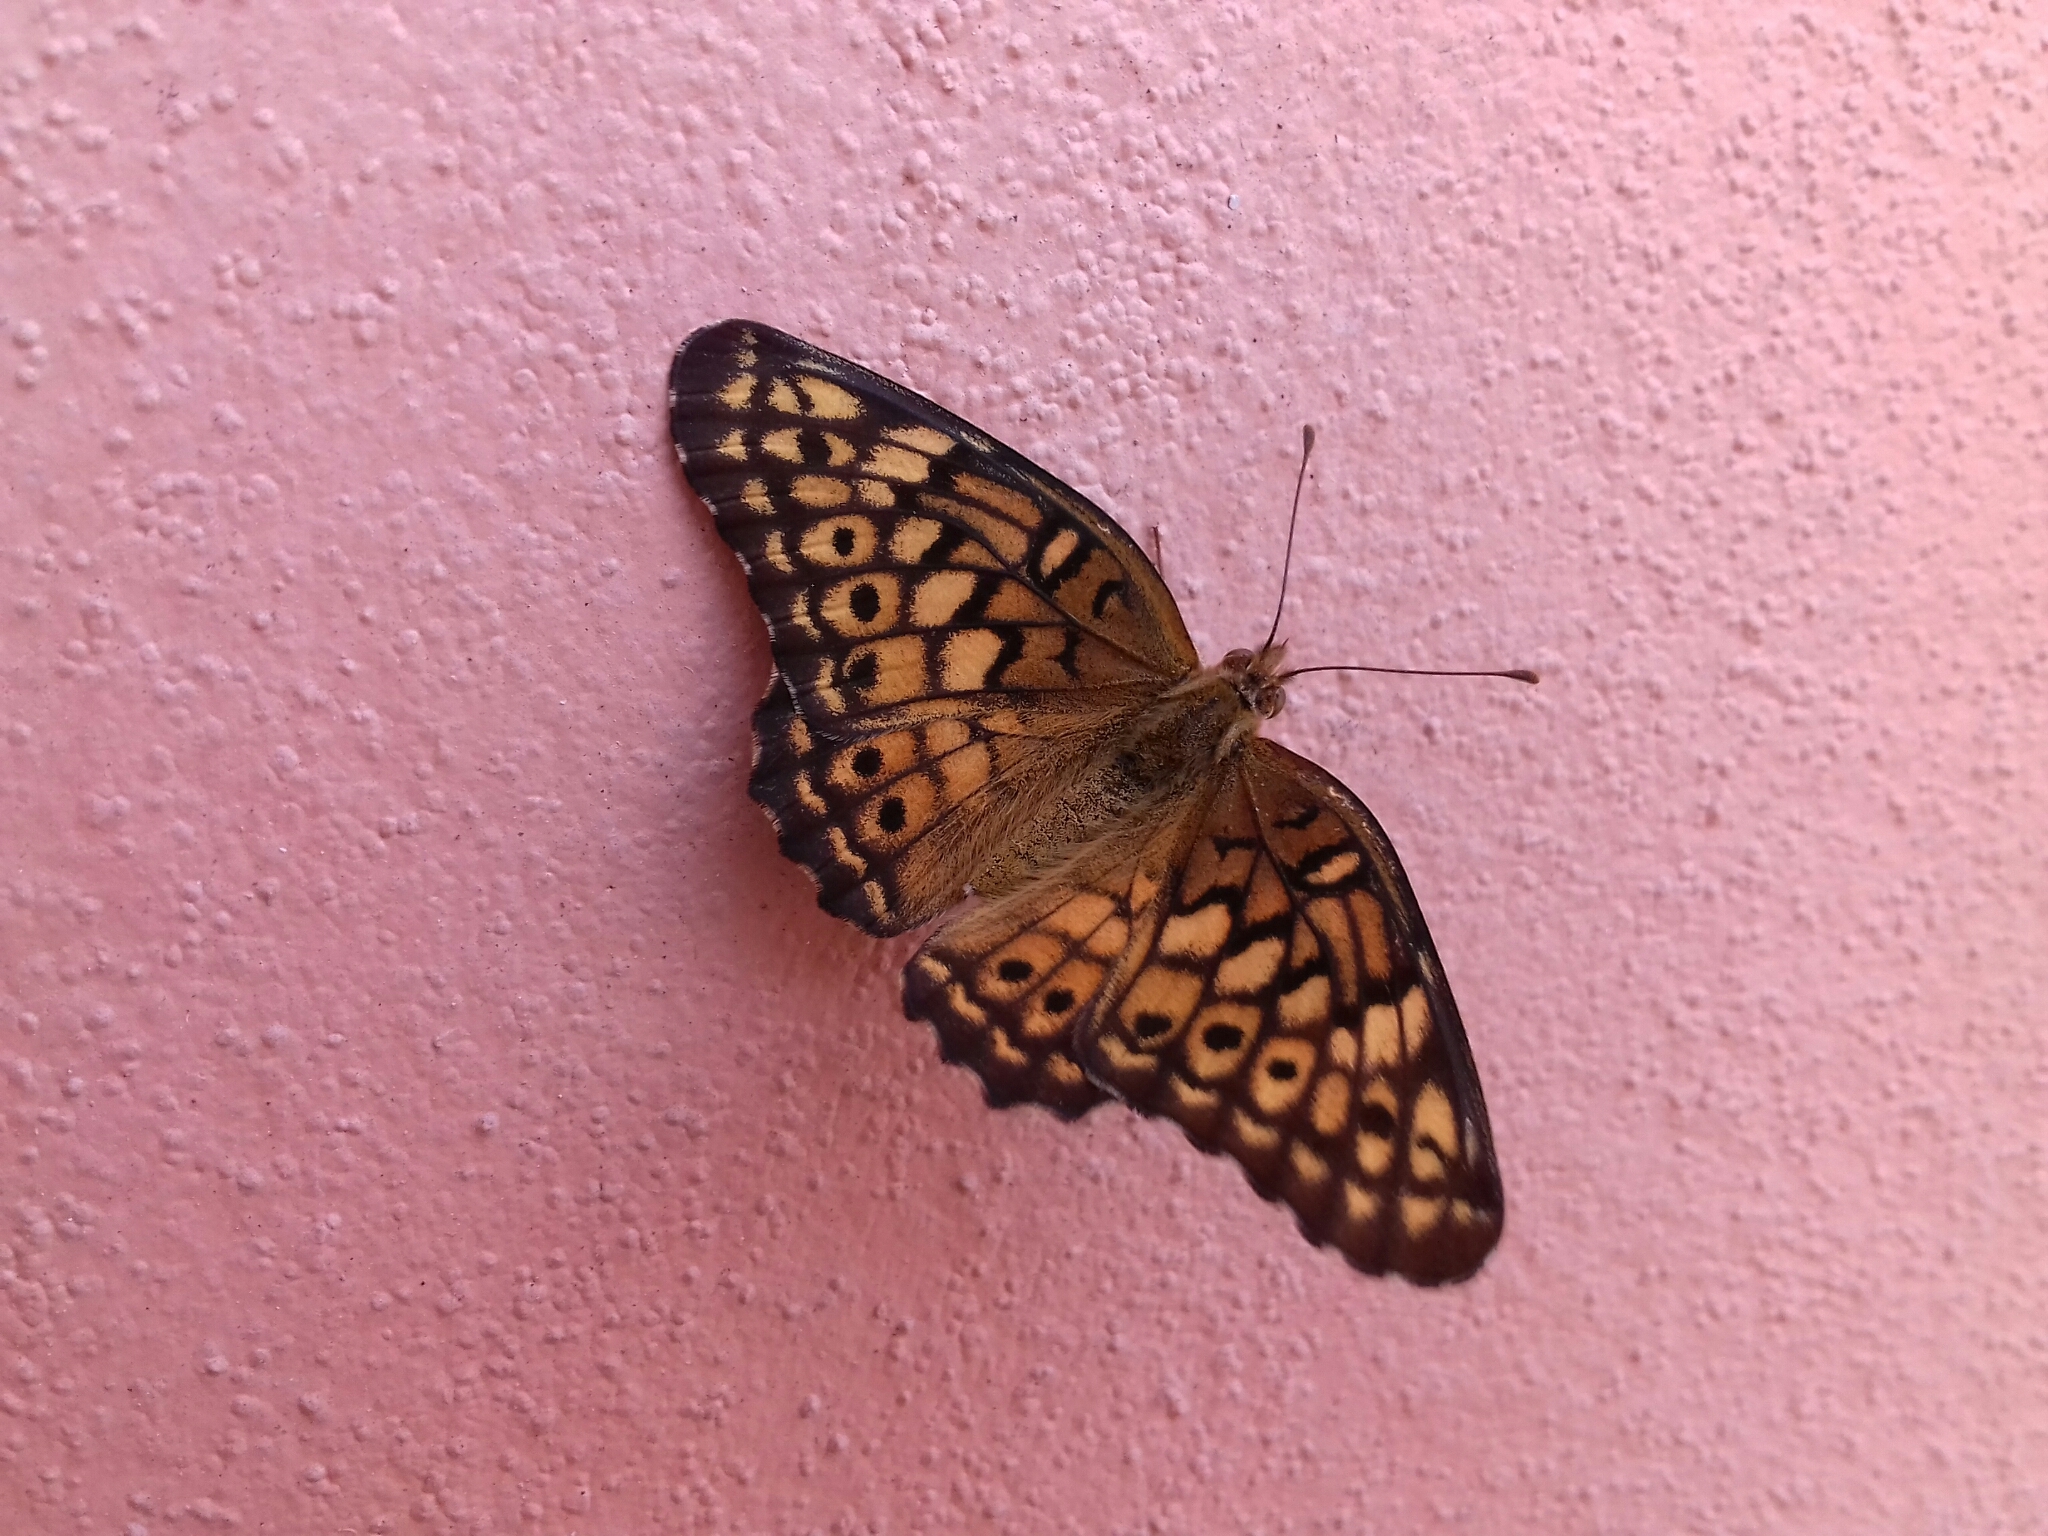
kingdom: Animalia
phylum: Arthropoda
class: Insecta
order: Lepidoptera
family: Nymphalidae
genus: Euptoieta
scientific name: Euptoieta claudia
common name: Variegated fritillary
